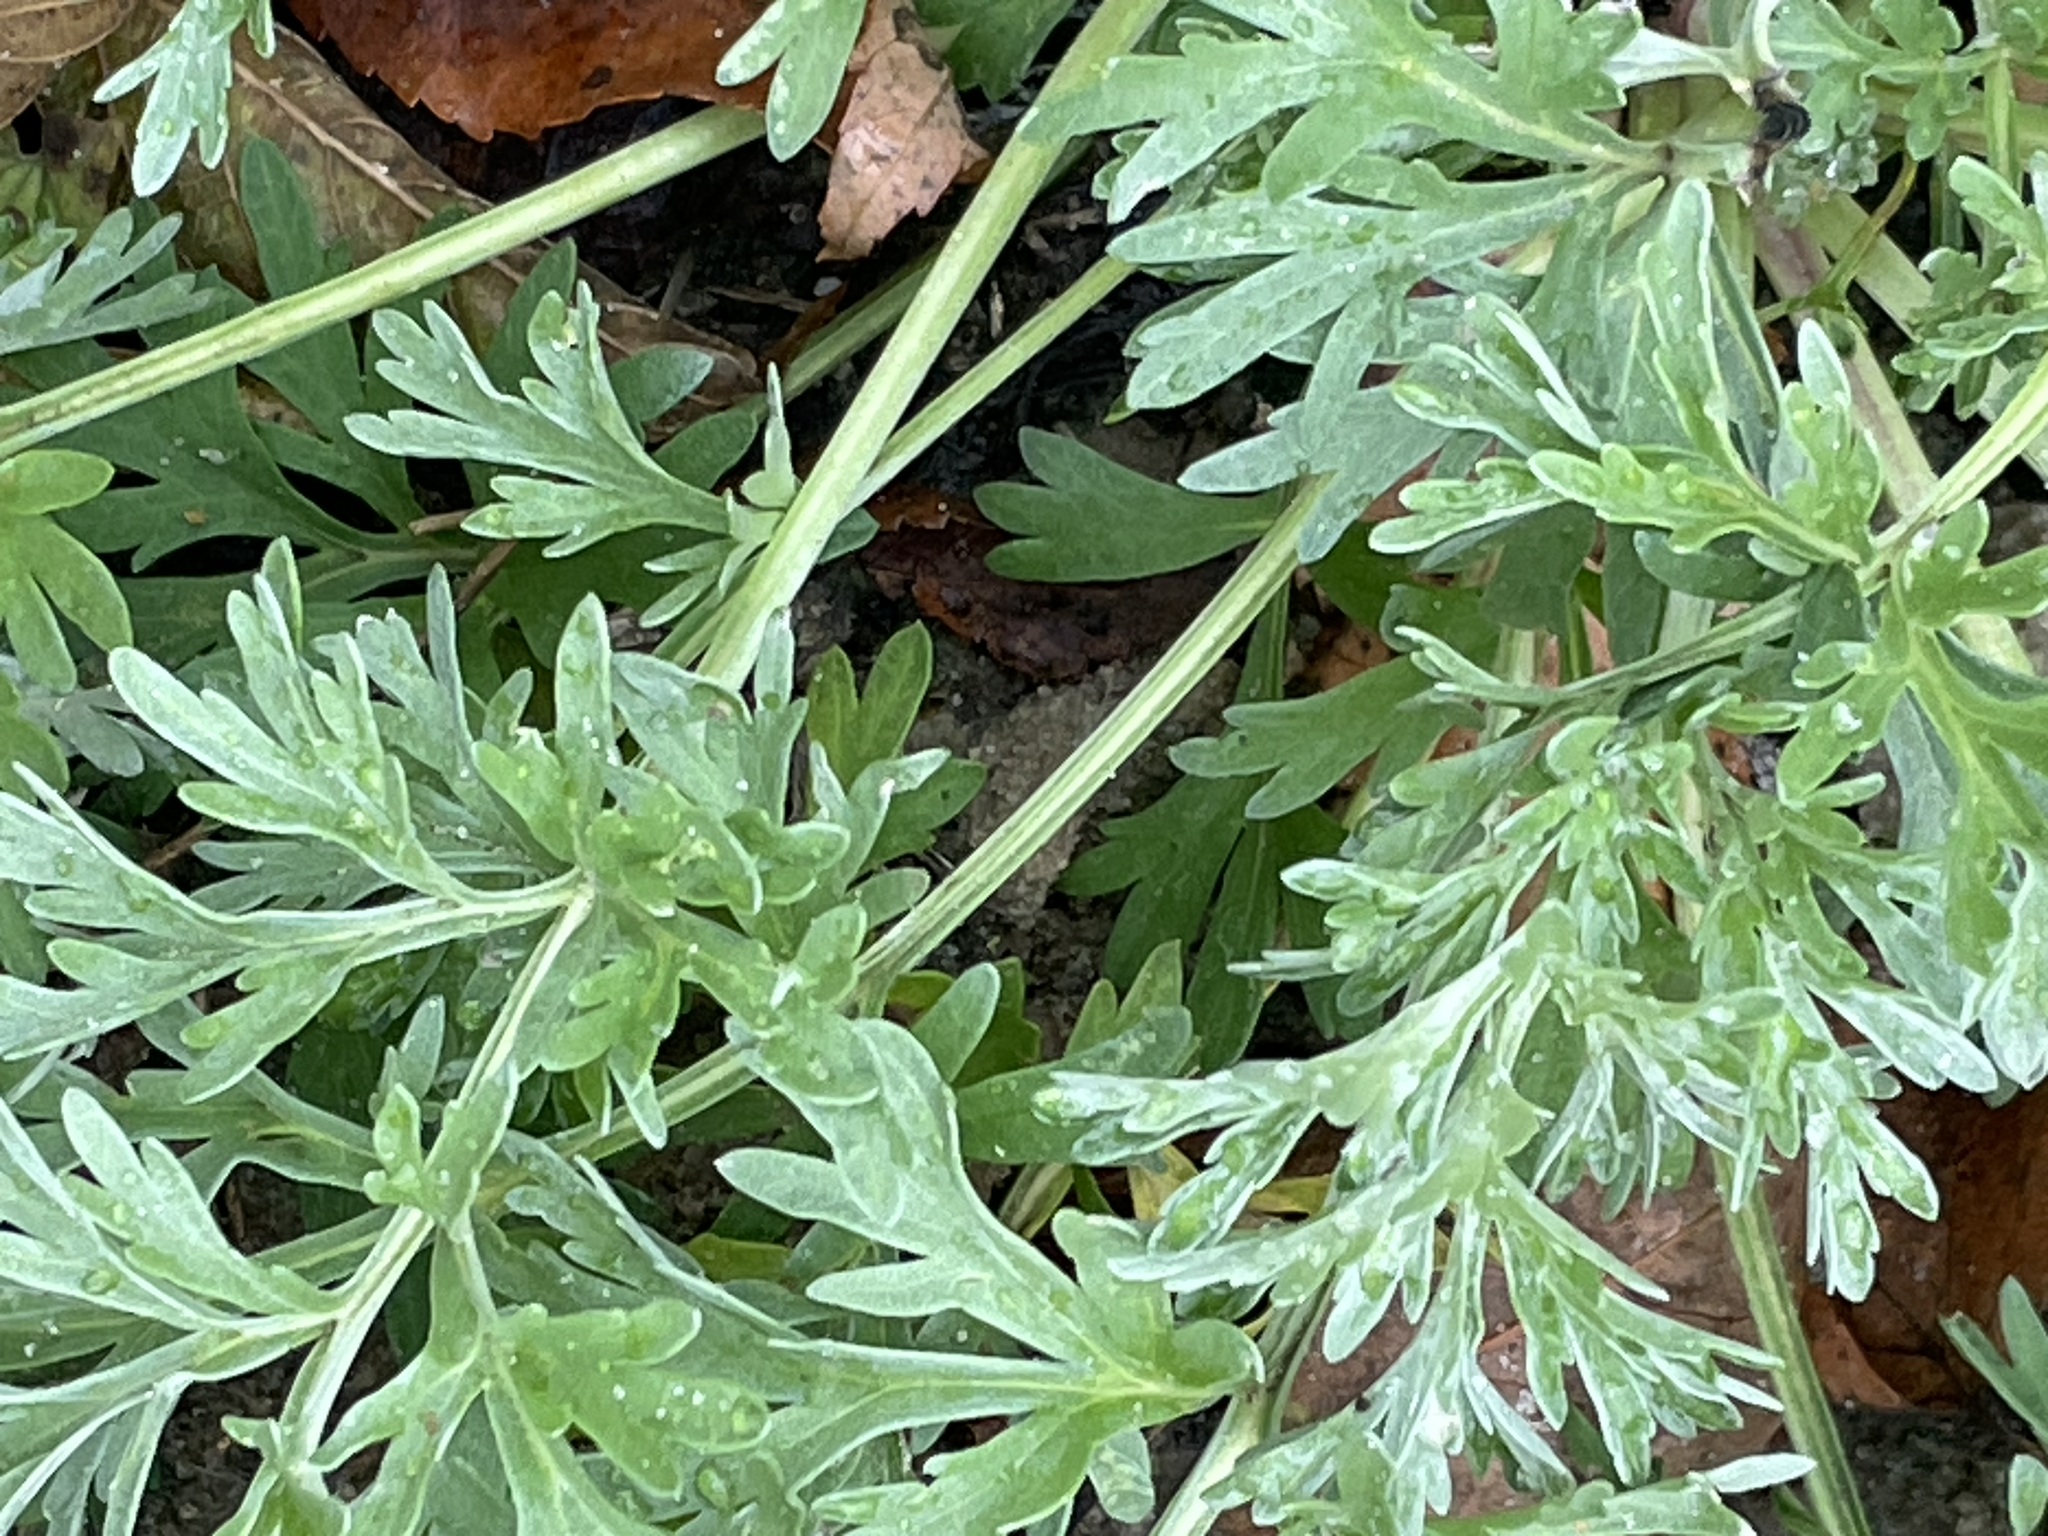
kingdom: Plantae
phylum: Tracheophyta
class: Magnoliopsida
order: Asterales
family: Asteraceae
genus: Artemisia
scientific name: Artemisia absinthium
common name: Wormwood
